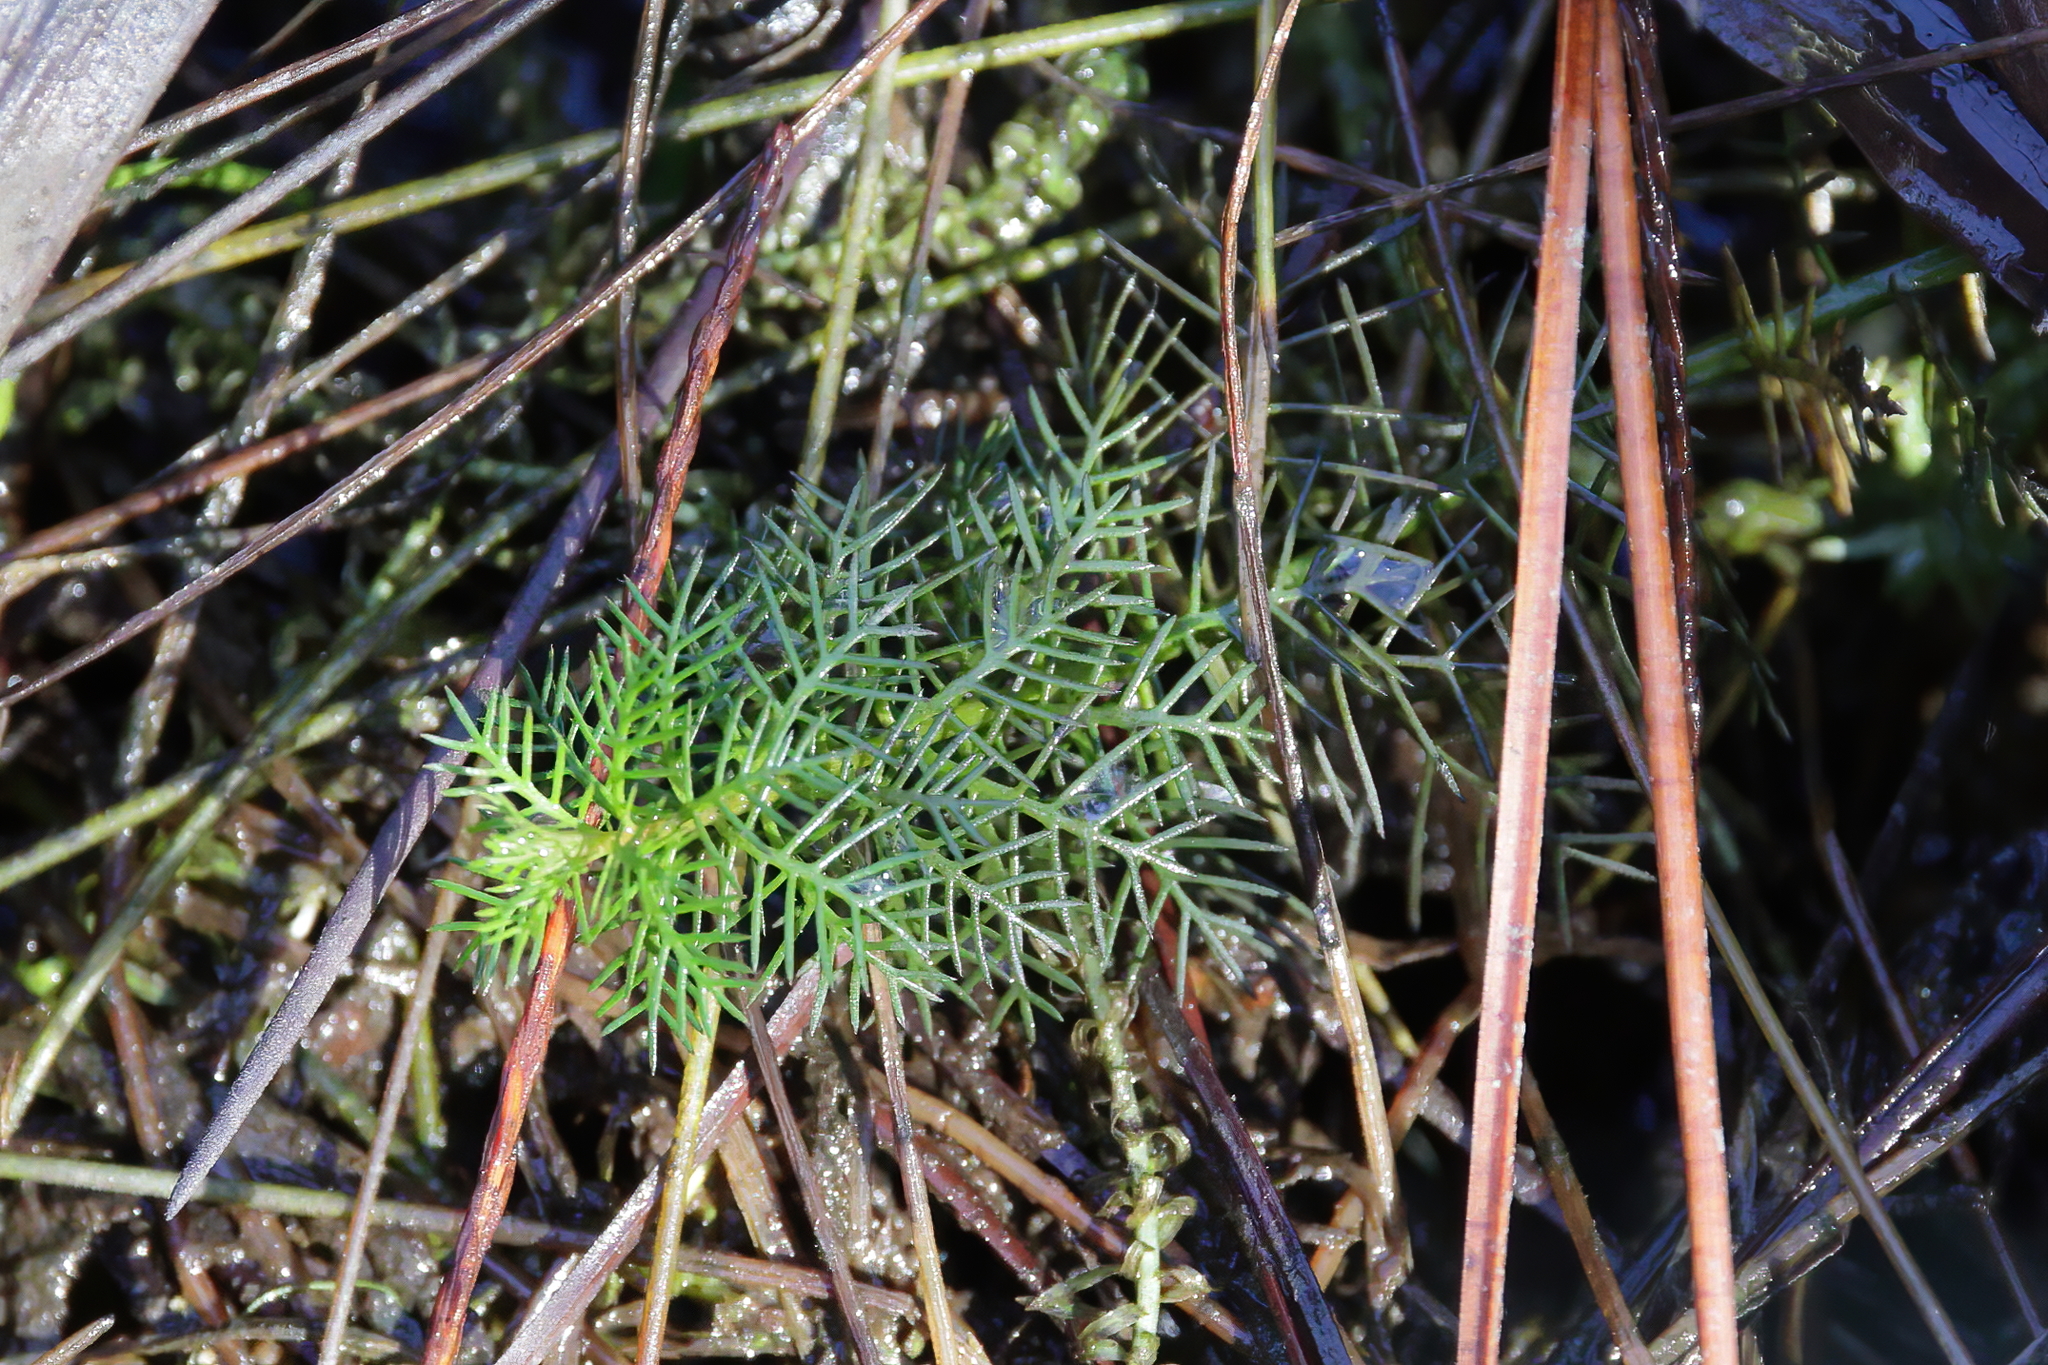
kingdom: Plantae
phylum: Tracheophyta
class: Magnoliopsida
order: Saxifragales
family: Haloragaceae
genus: Proserpinaca
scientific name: Proserpinaca pectinata
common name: Comb-leaved mermaidweed
